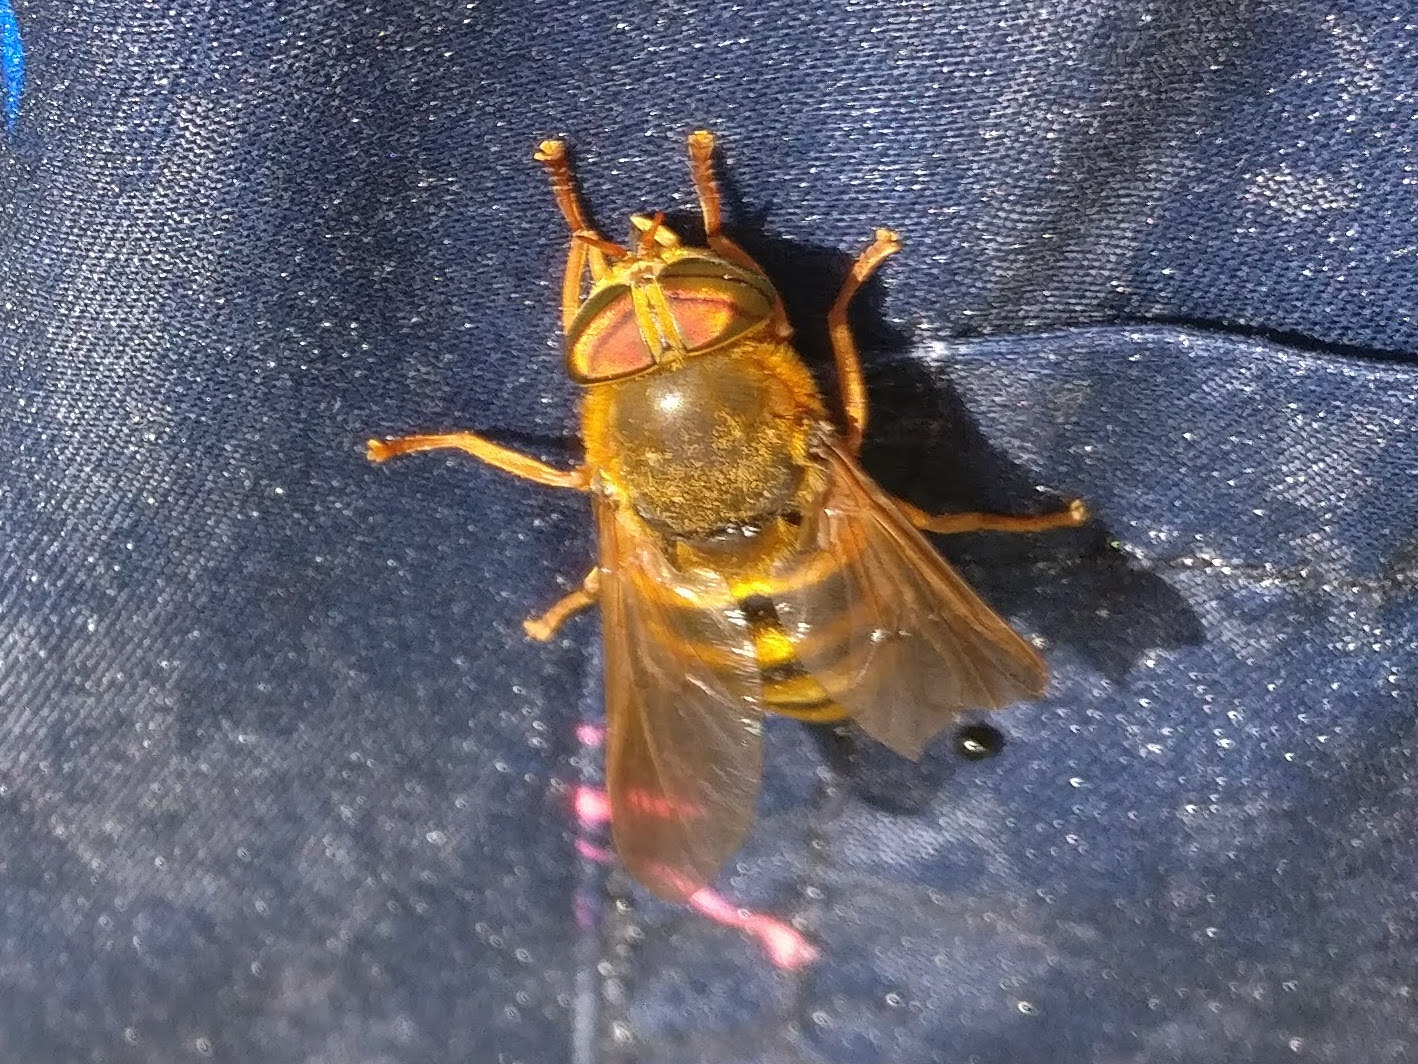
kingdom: Animalia
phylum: Arthropoda
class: Insecta
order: Diptera
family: Tabanidae
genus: Hybomitra
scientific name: Hybomitra tarandina
